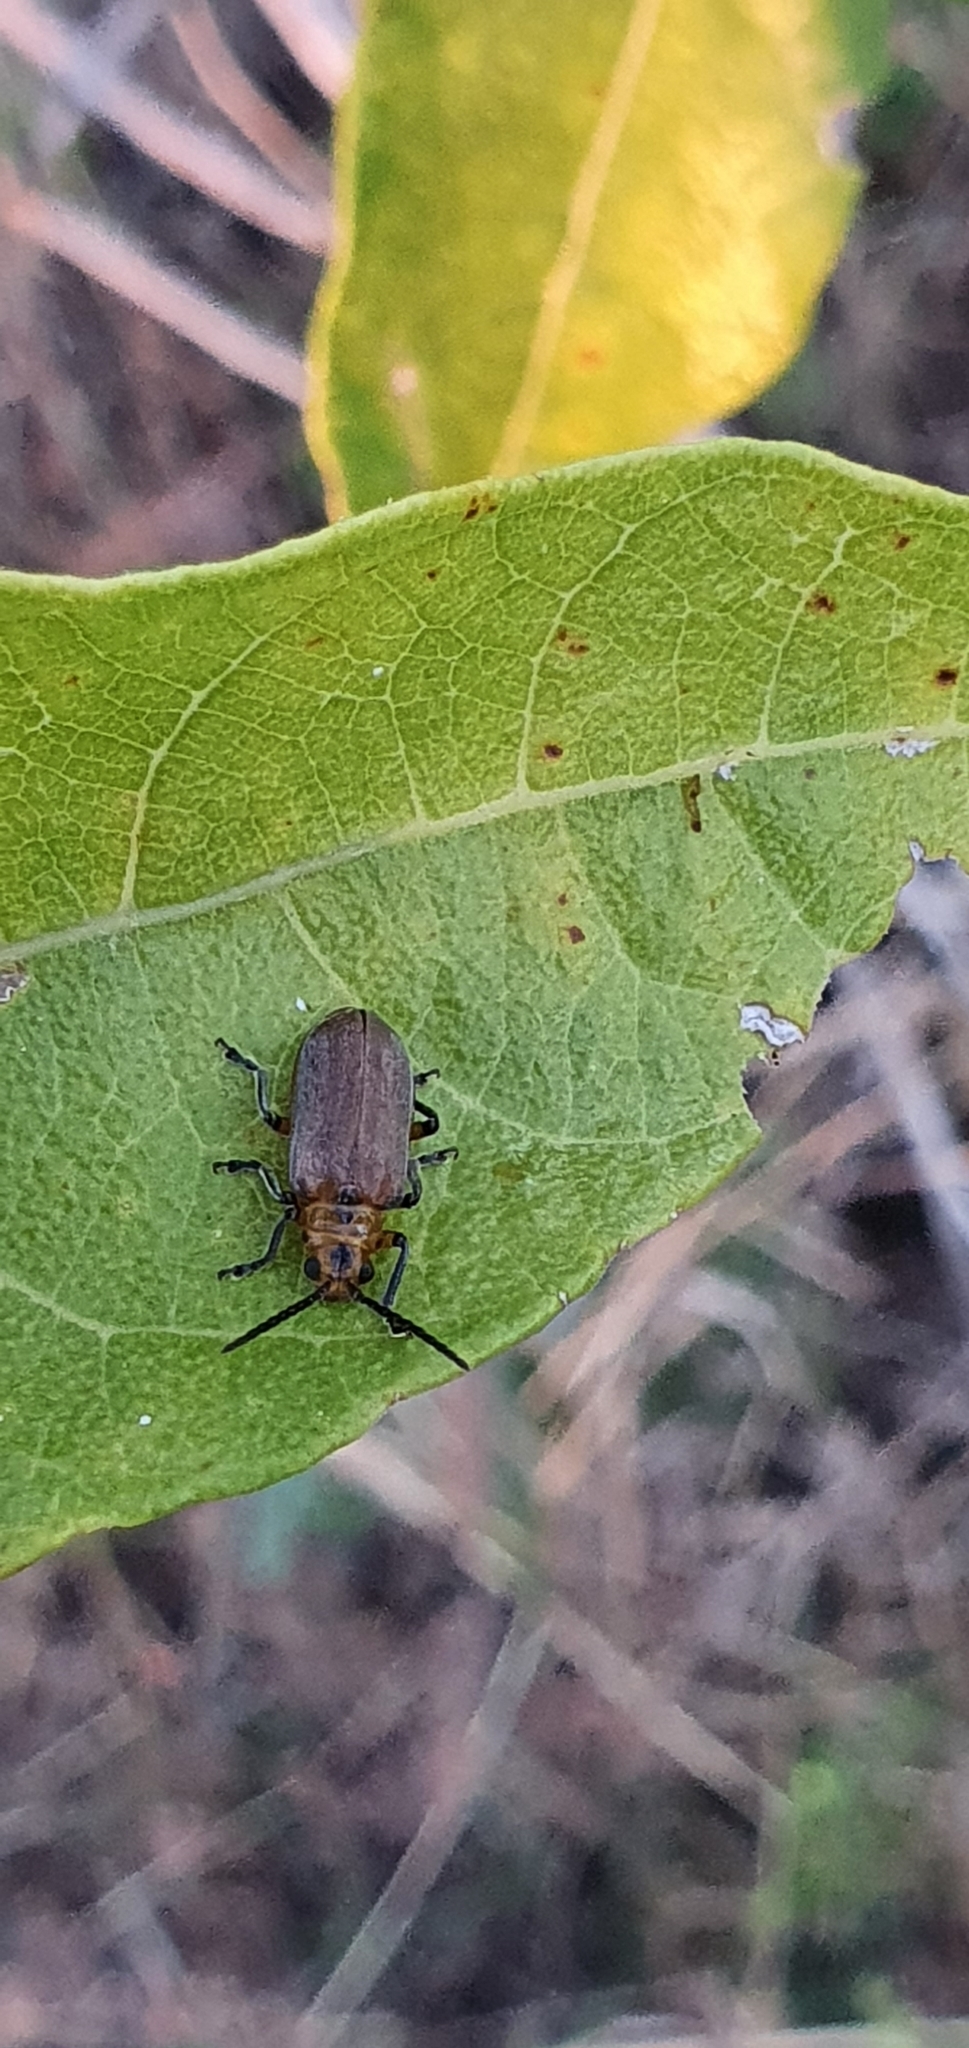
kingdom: Animalia
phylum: Arthropoda
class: Insecta
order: Coleoptera
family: Chrysomelidae
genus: Poneridia
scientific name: Poneridia semipullata
